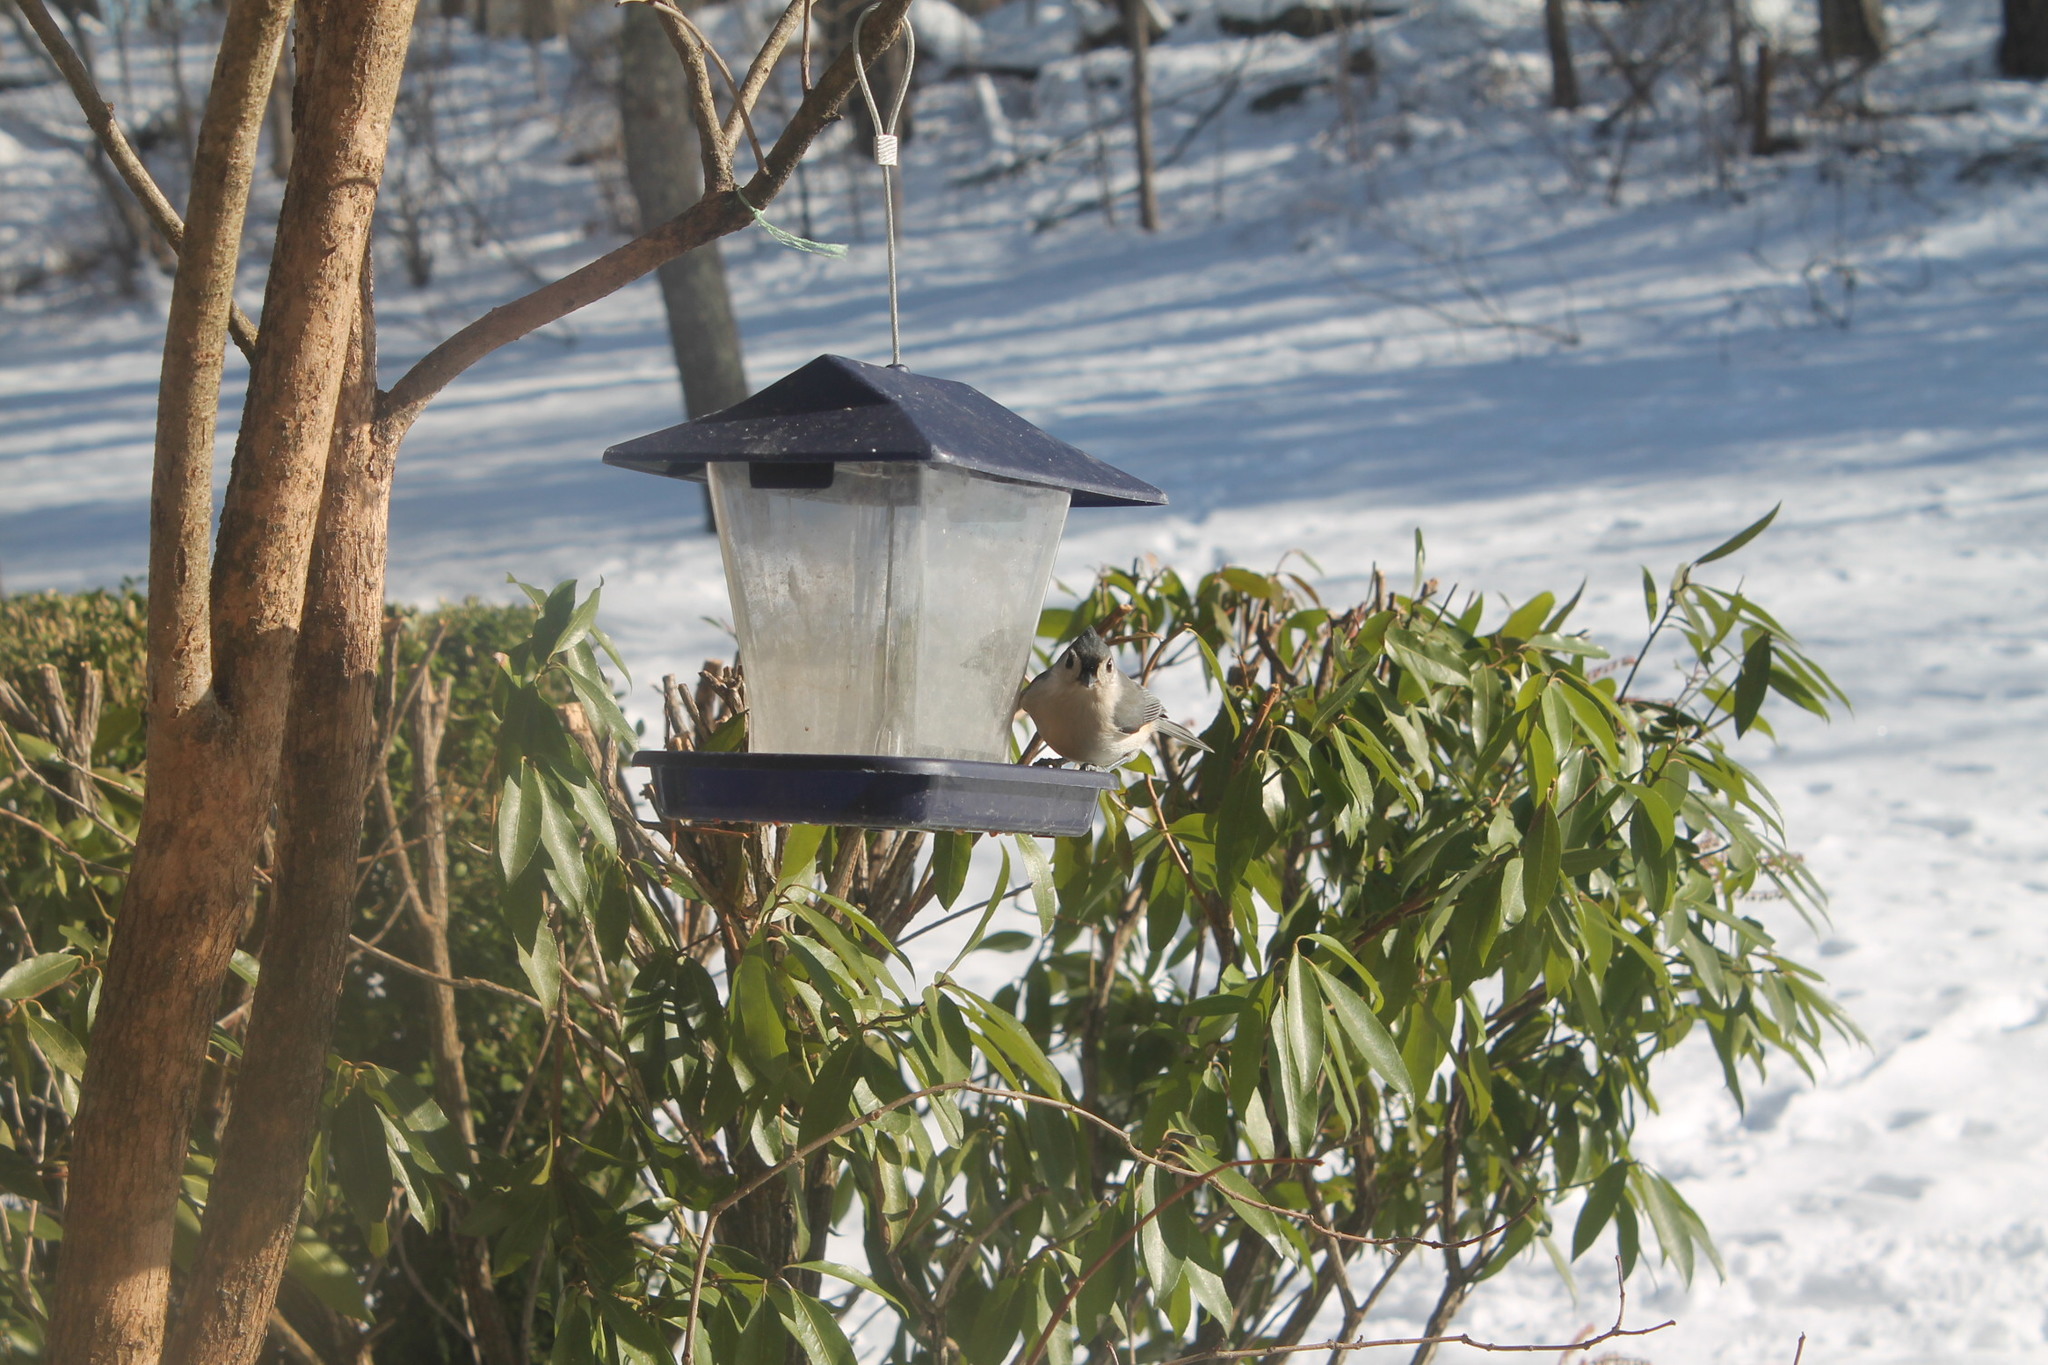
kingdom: Animalia
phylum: Chordata
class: Aves
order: Passeriformes
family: Paridae
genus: Baeolophus
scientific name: Baeolophus bicolor
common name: Tufted titmouse
